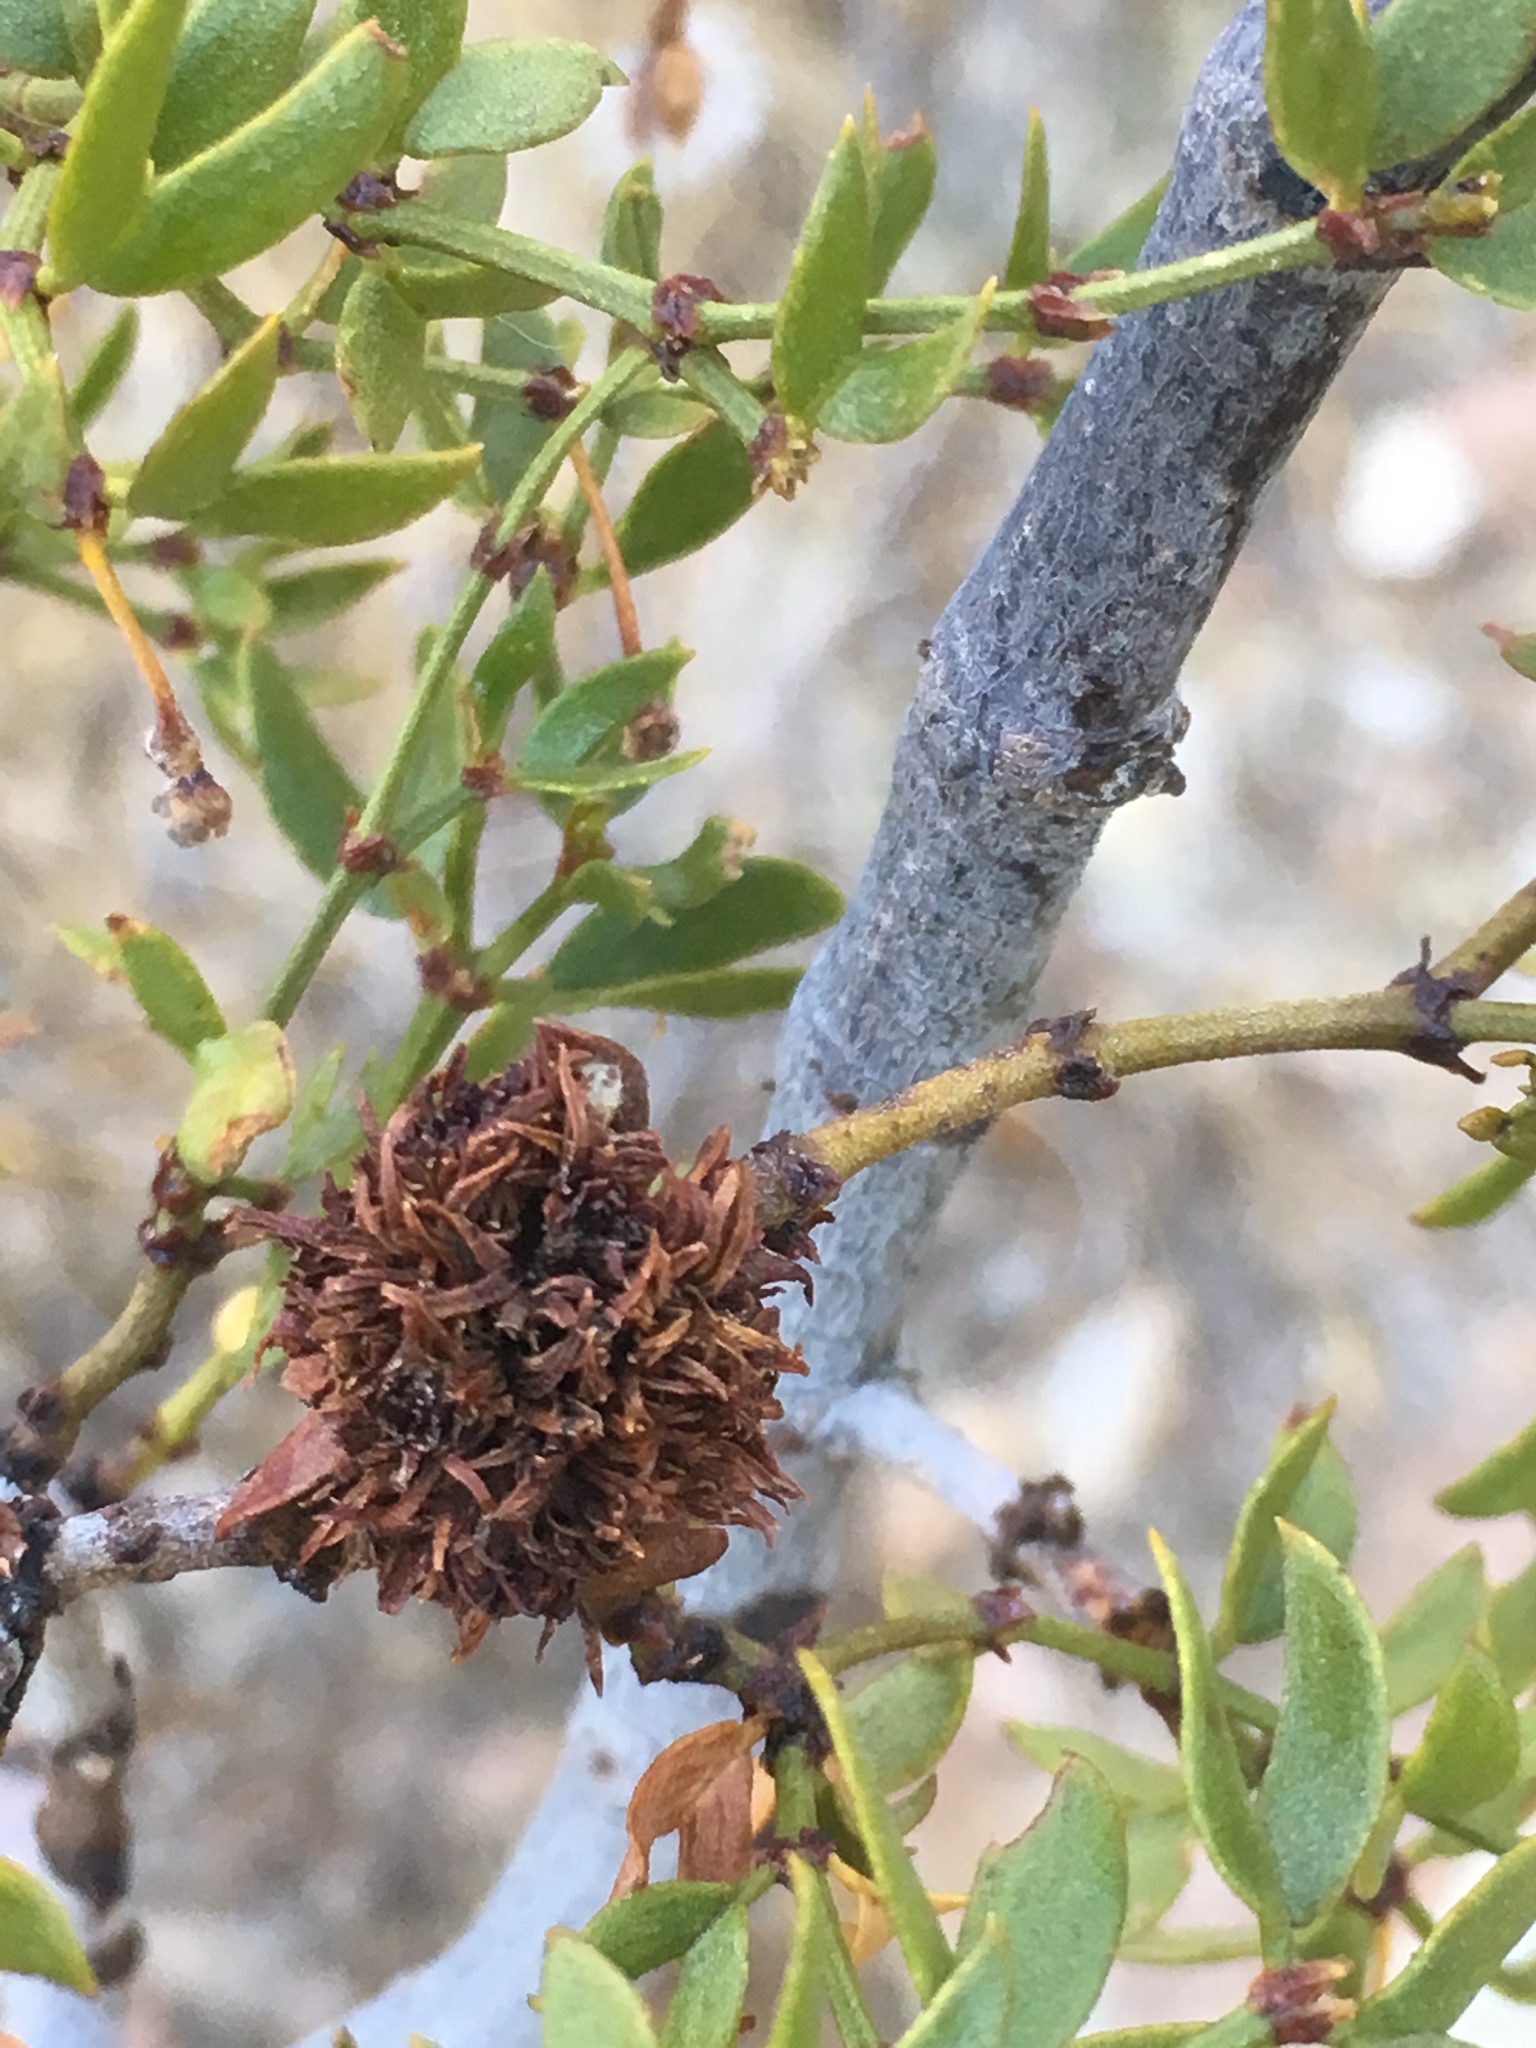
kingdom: Animalia
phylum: Arthropoda
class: Insecta
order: Diptera
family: Cecidomyiidae
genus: Asphondylia
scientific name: Asphondylia auripila
